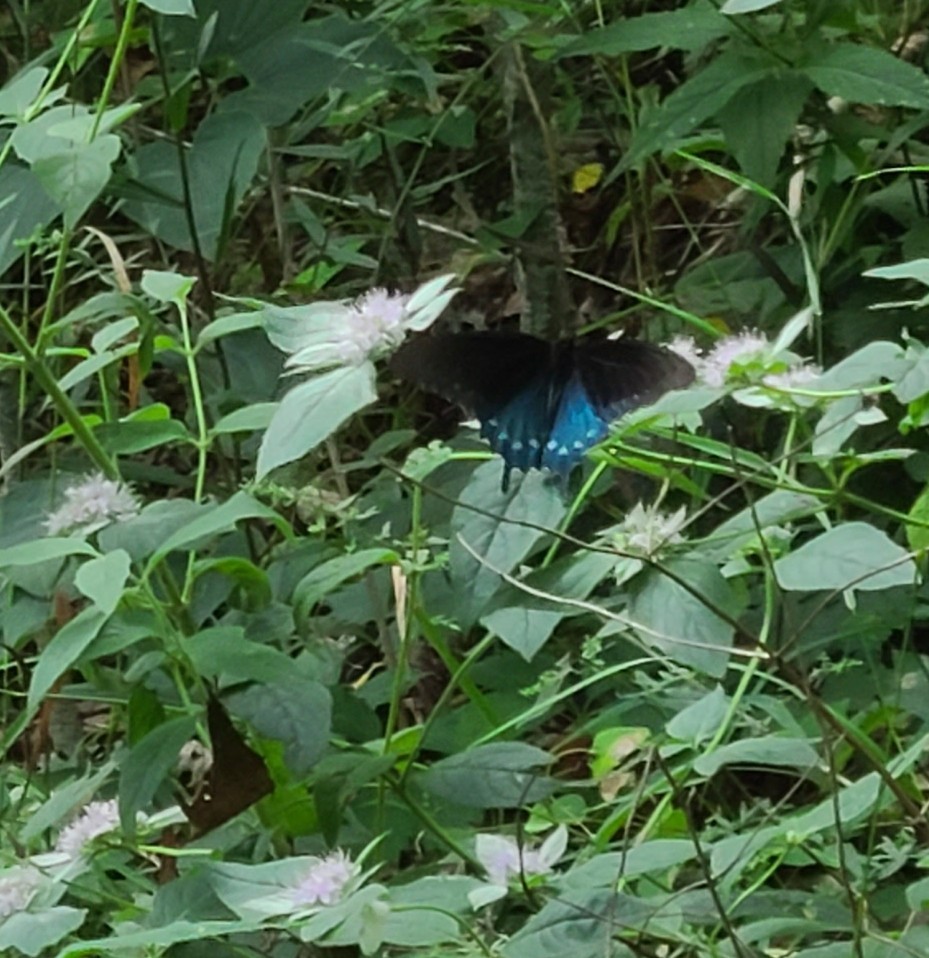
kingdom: Animalia
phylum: Arthropoda
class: Insecta
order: Lepidoptera
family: Papilionidae
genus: Battus
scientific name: Battus philenor
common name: Pipevine swallowtail
